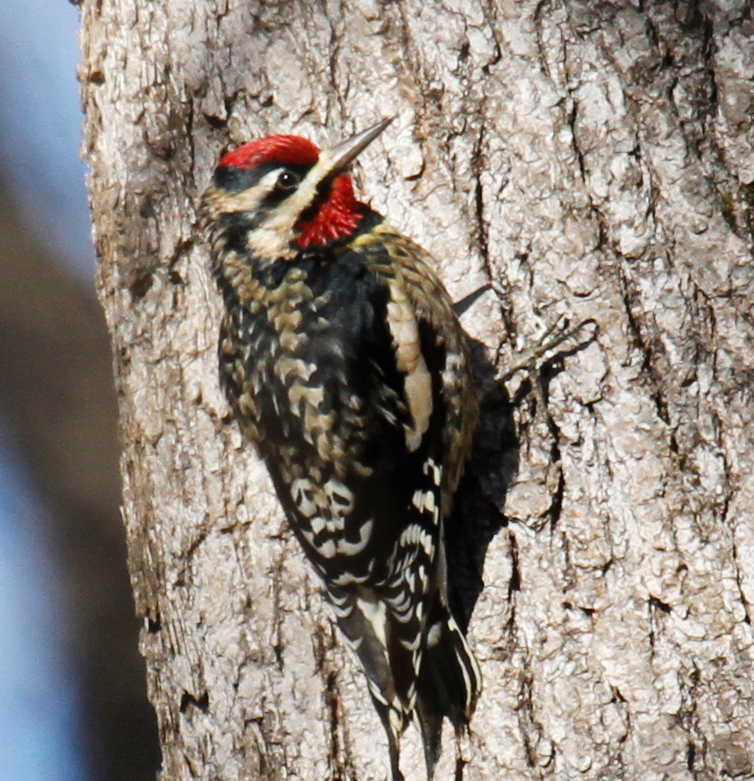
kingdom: Animalia
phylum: Chordata
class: Aves
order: Piciformes
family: Picidae
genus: Sphyrapicus
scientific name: Sphyrapicus varius
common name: Yellow-bellied sapsucker
